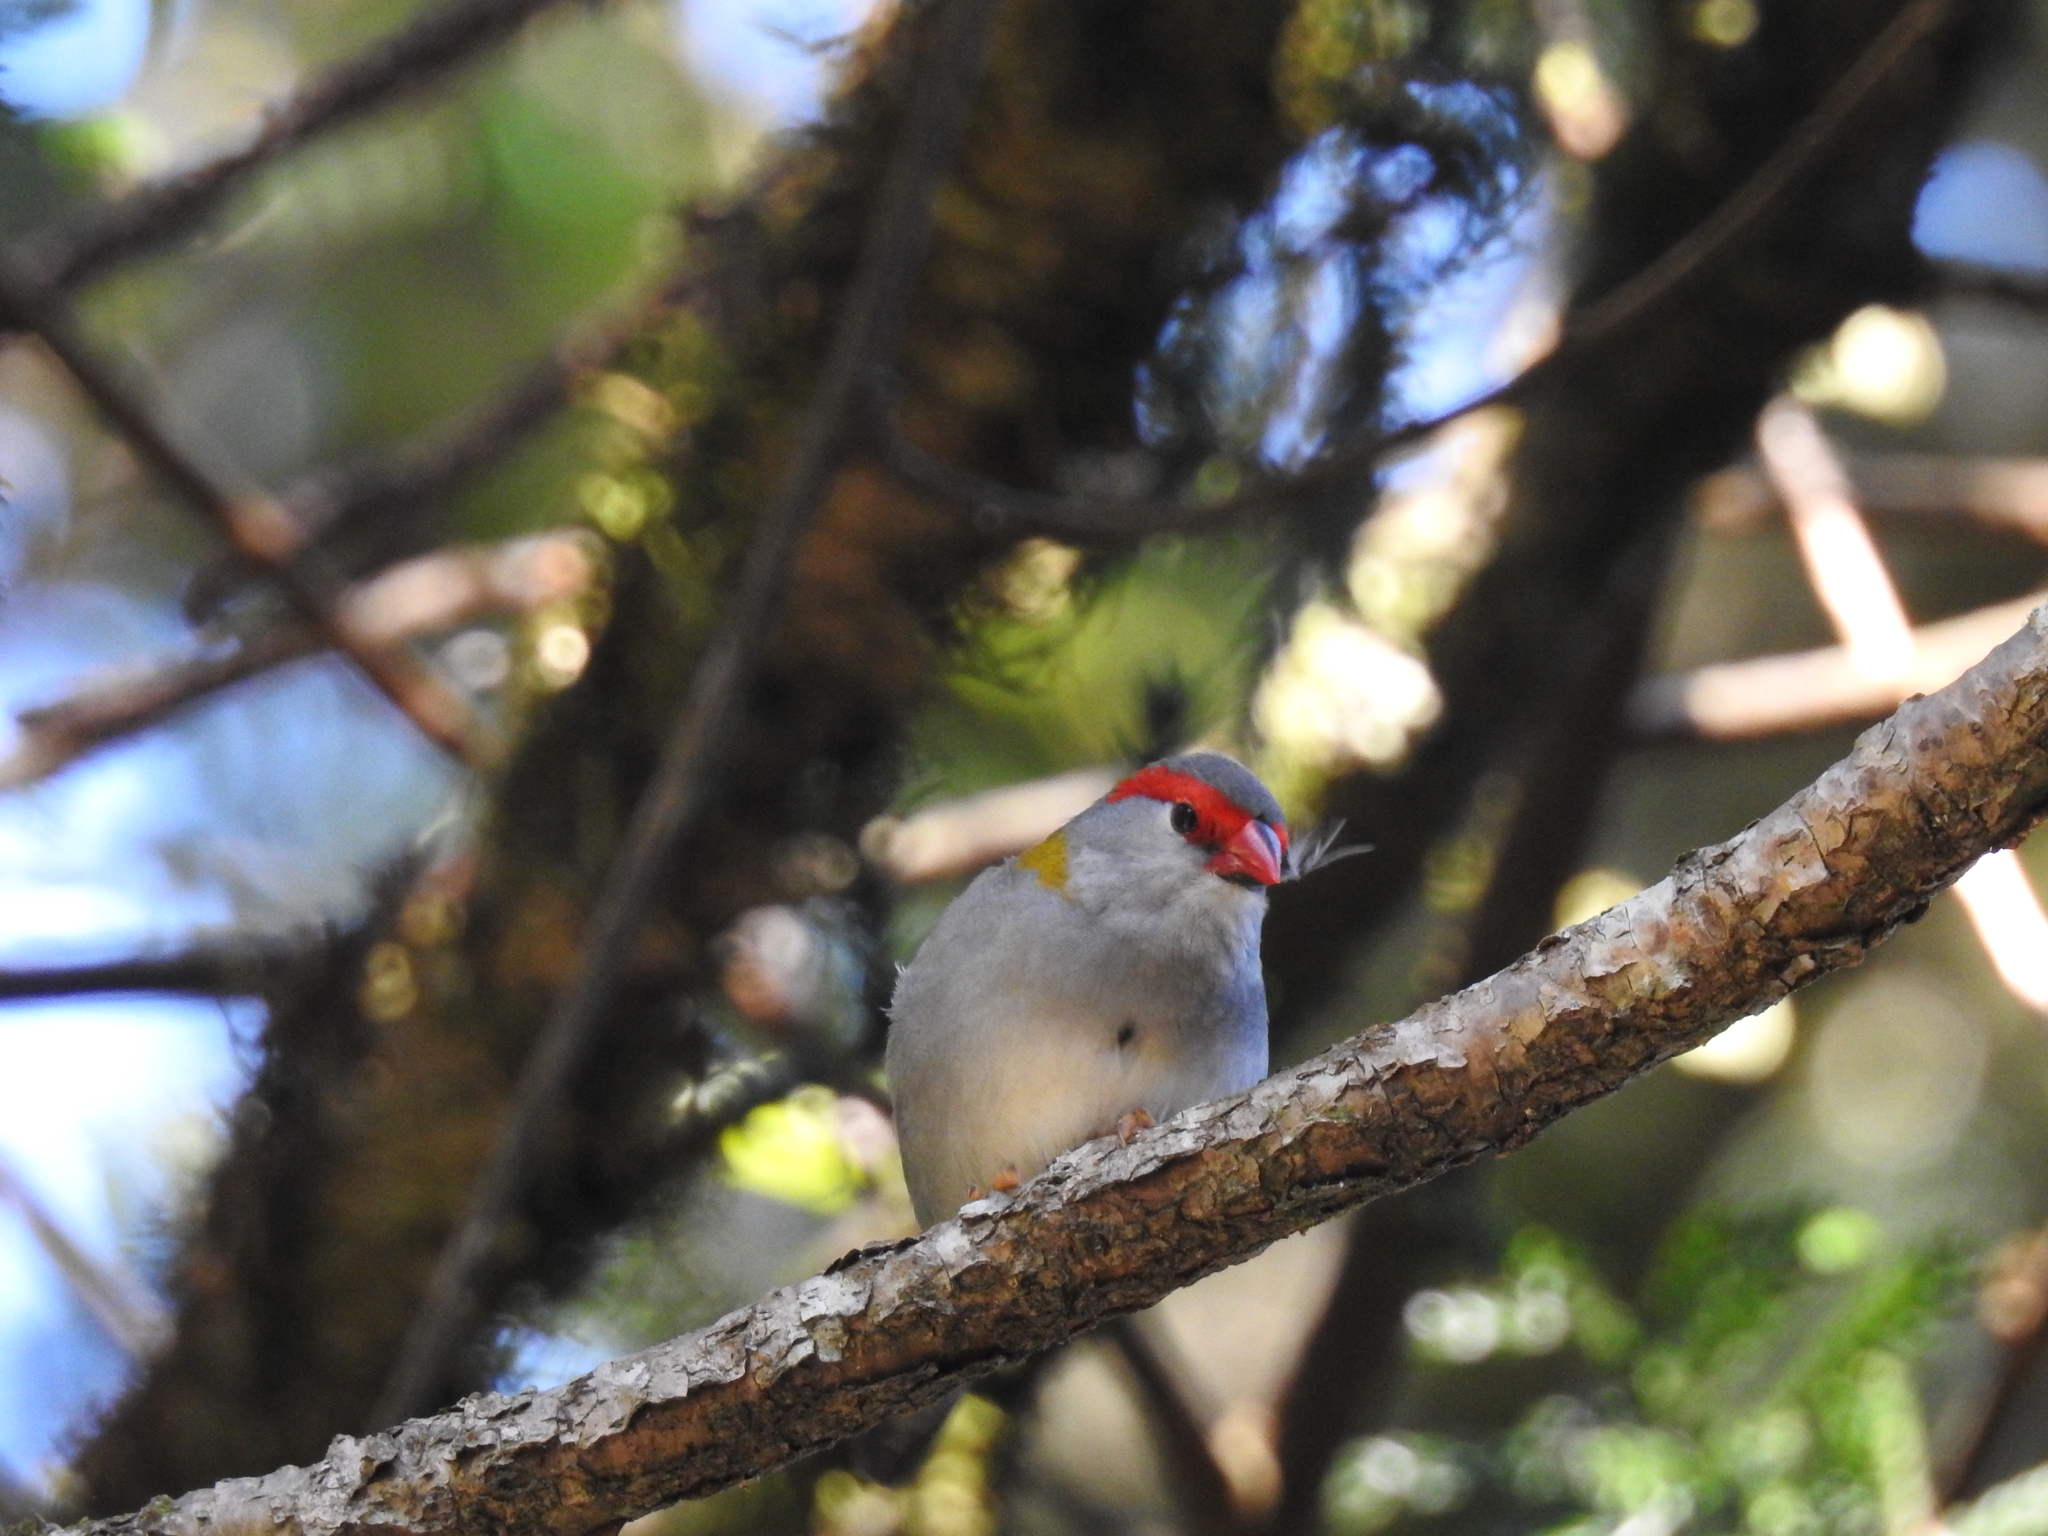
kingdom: Animalia
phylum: Chordata
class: Aves
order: Passeriformes
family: Estrildidae
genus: Neochmia
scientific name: Neochmia temporalis
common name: Red-browed finch
